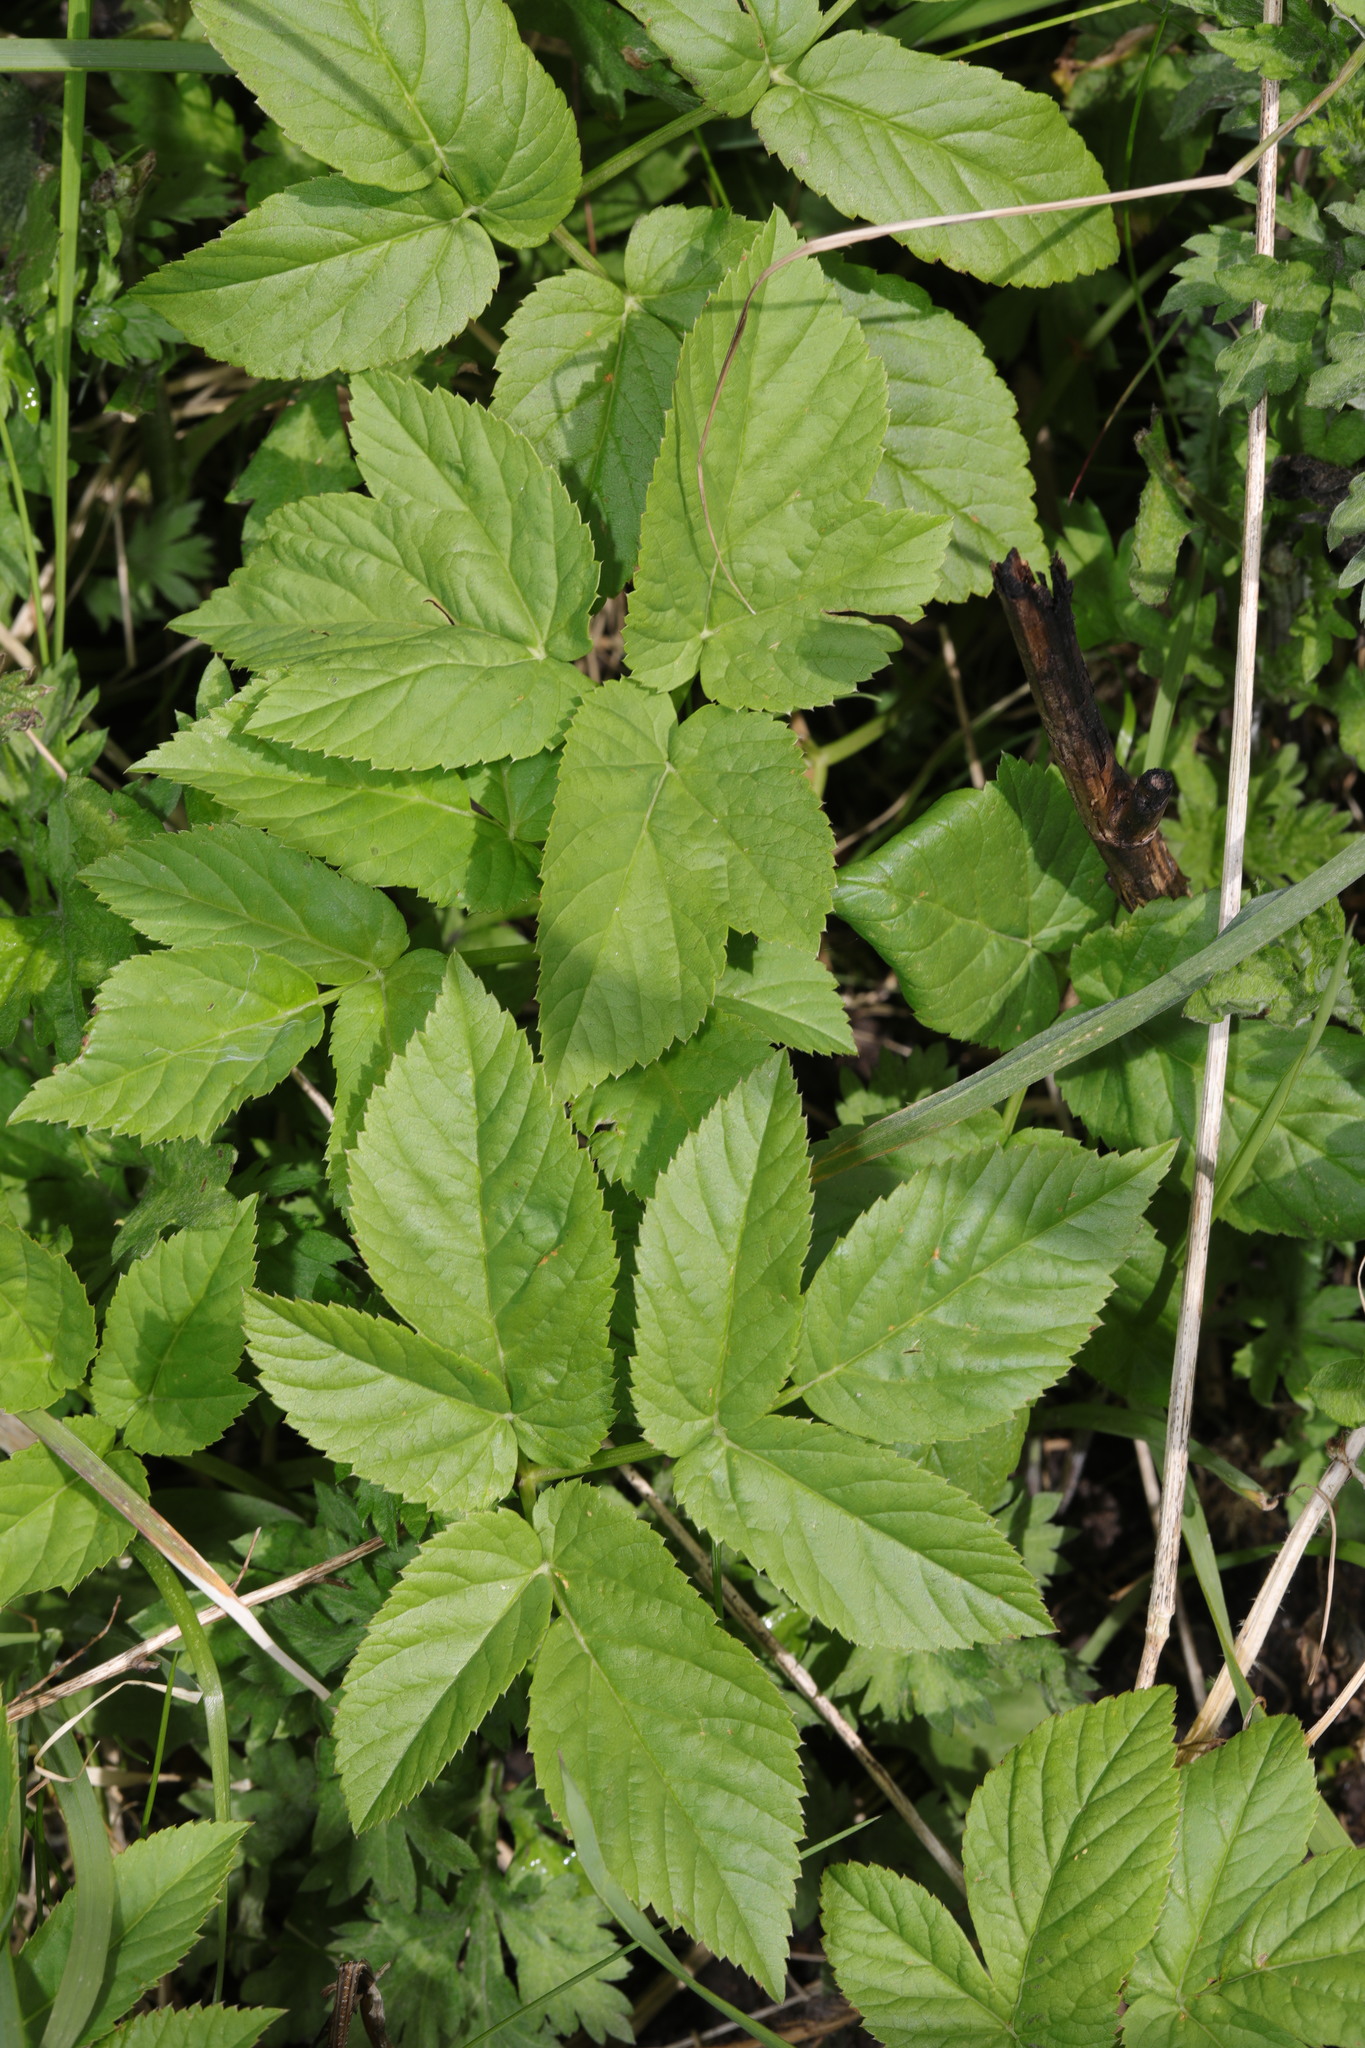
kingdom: Plantae
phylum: Tracheophyta
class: Magnoliopsida
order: Apiales
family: Apiaceae
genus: Aegopodium
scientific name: Aegopodium podagraria
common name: Ground-elder
